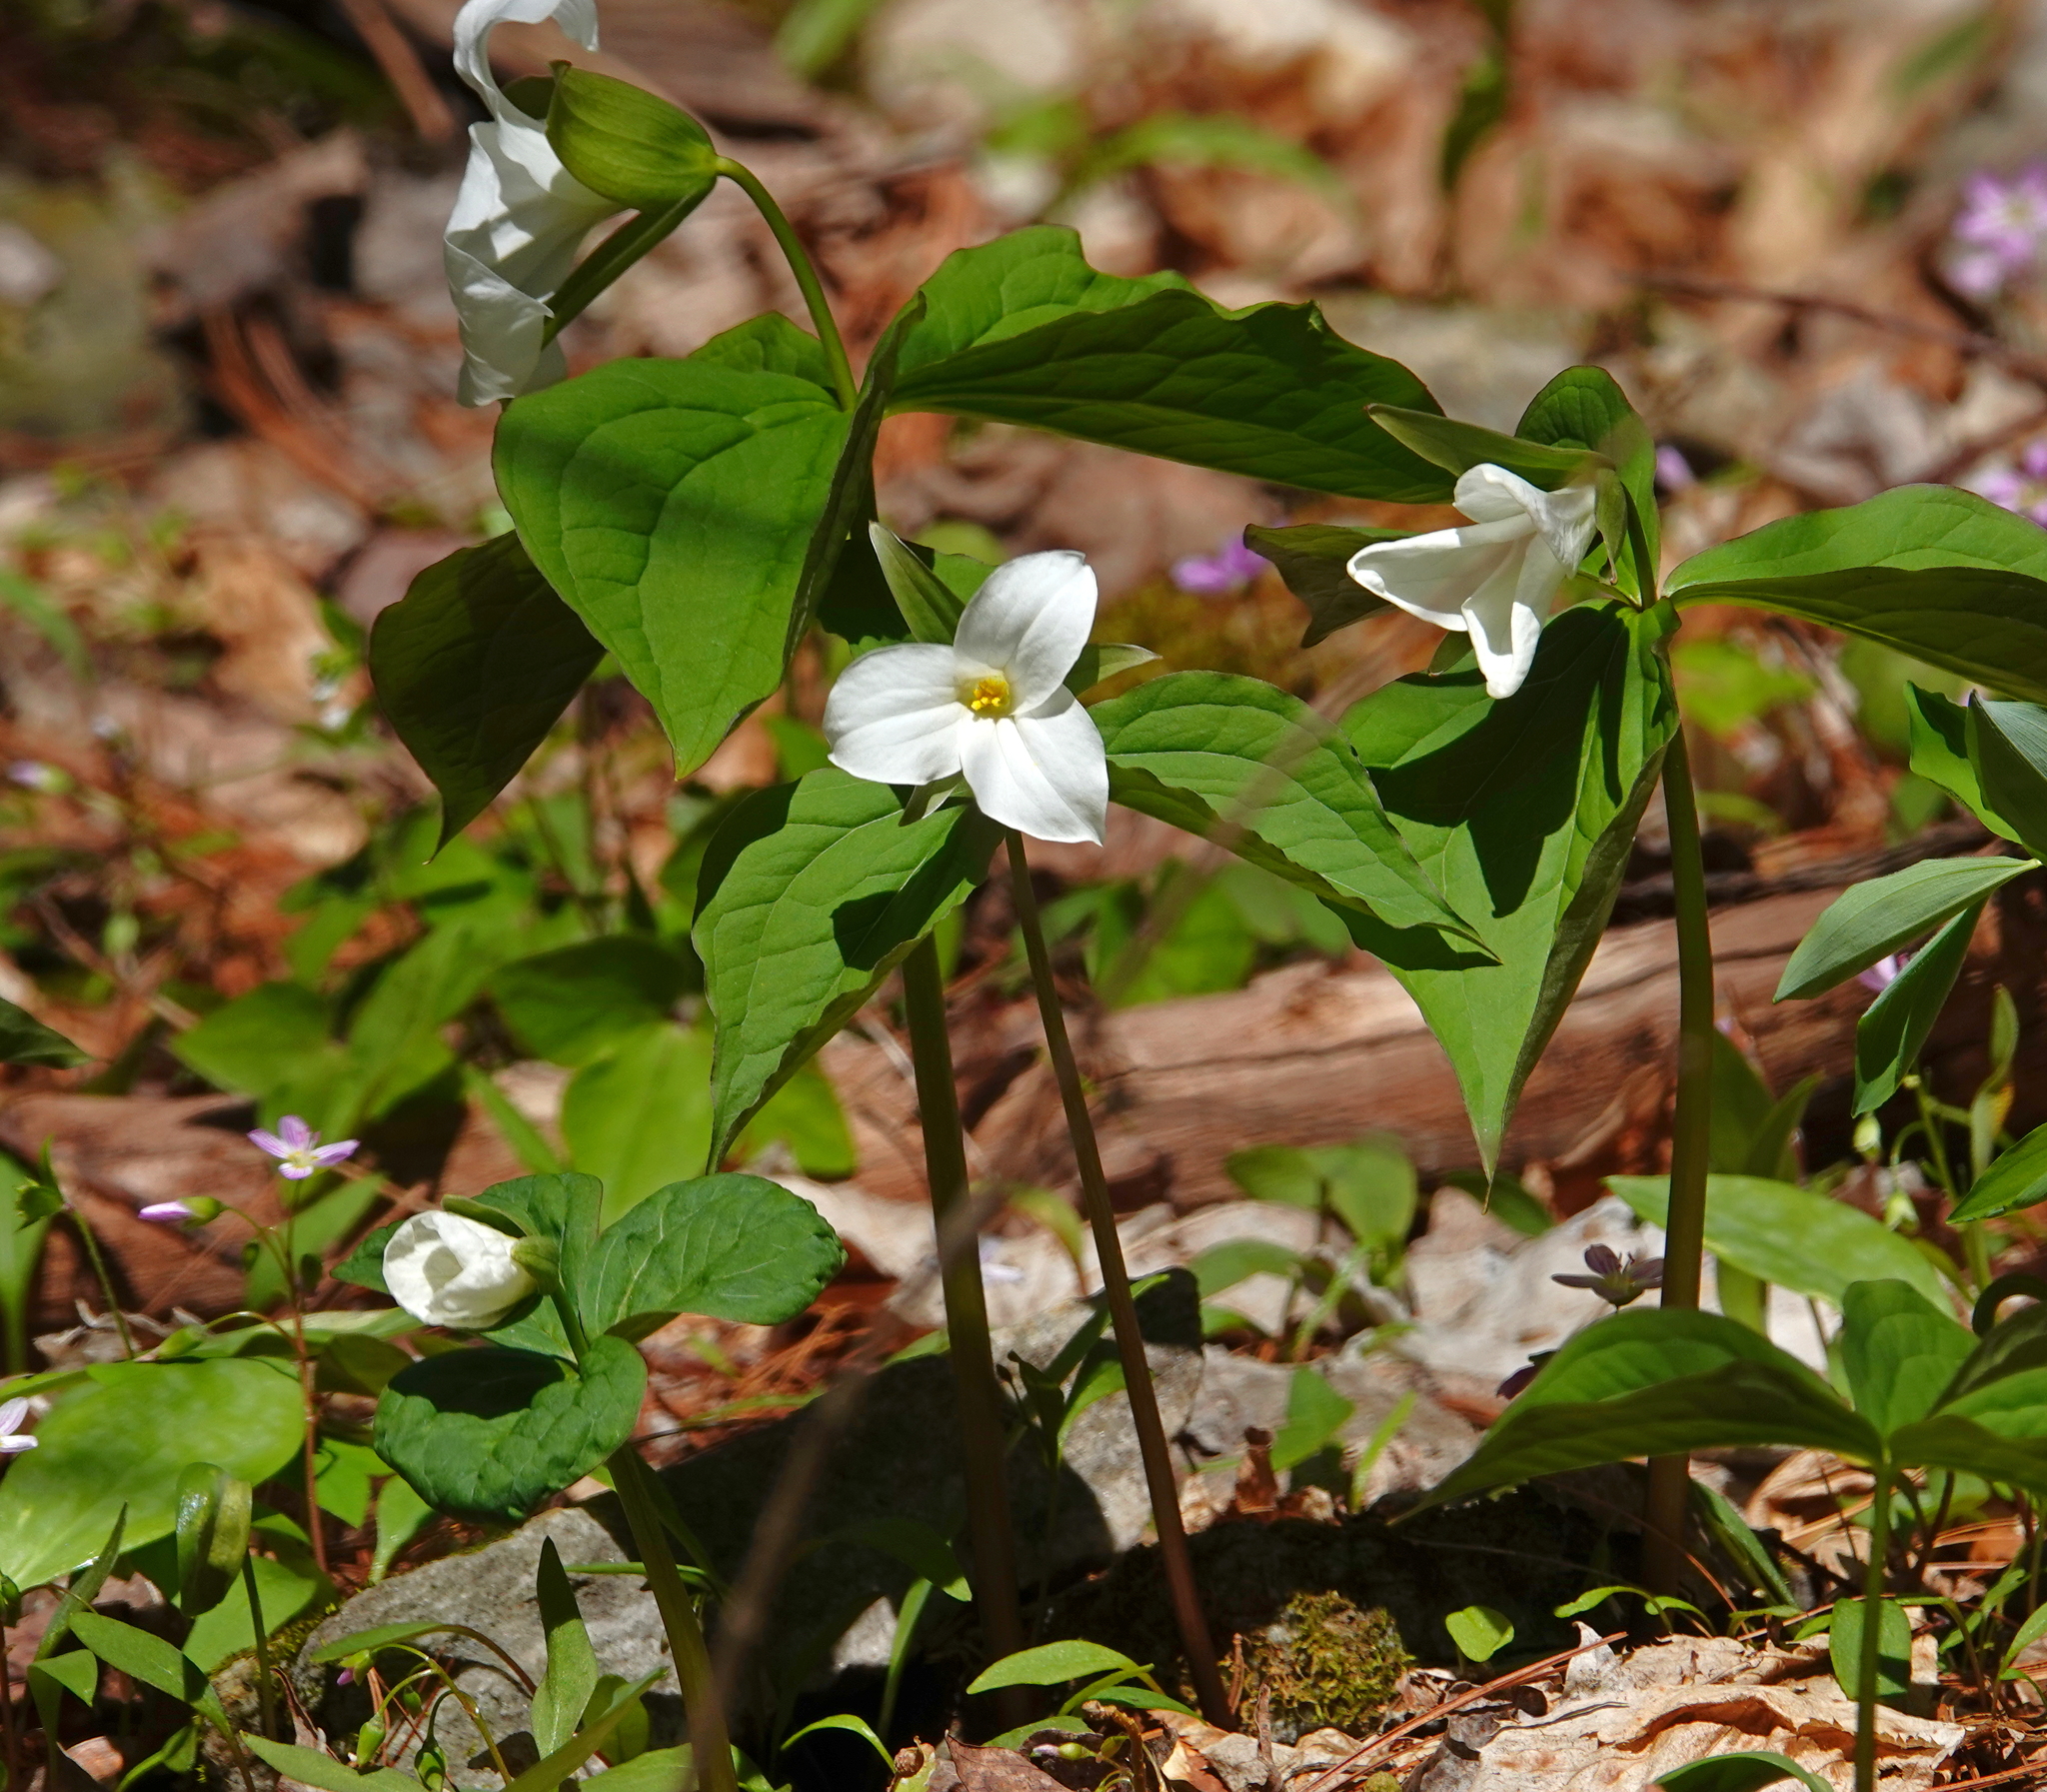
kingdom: Plantae
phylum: Tracheophyta
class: Liliopsida
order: Liliales
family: Melanthiaceae
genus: Trillium
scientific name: Trillium grandiflorum
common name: Great white trillium
